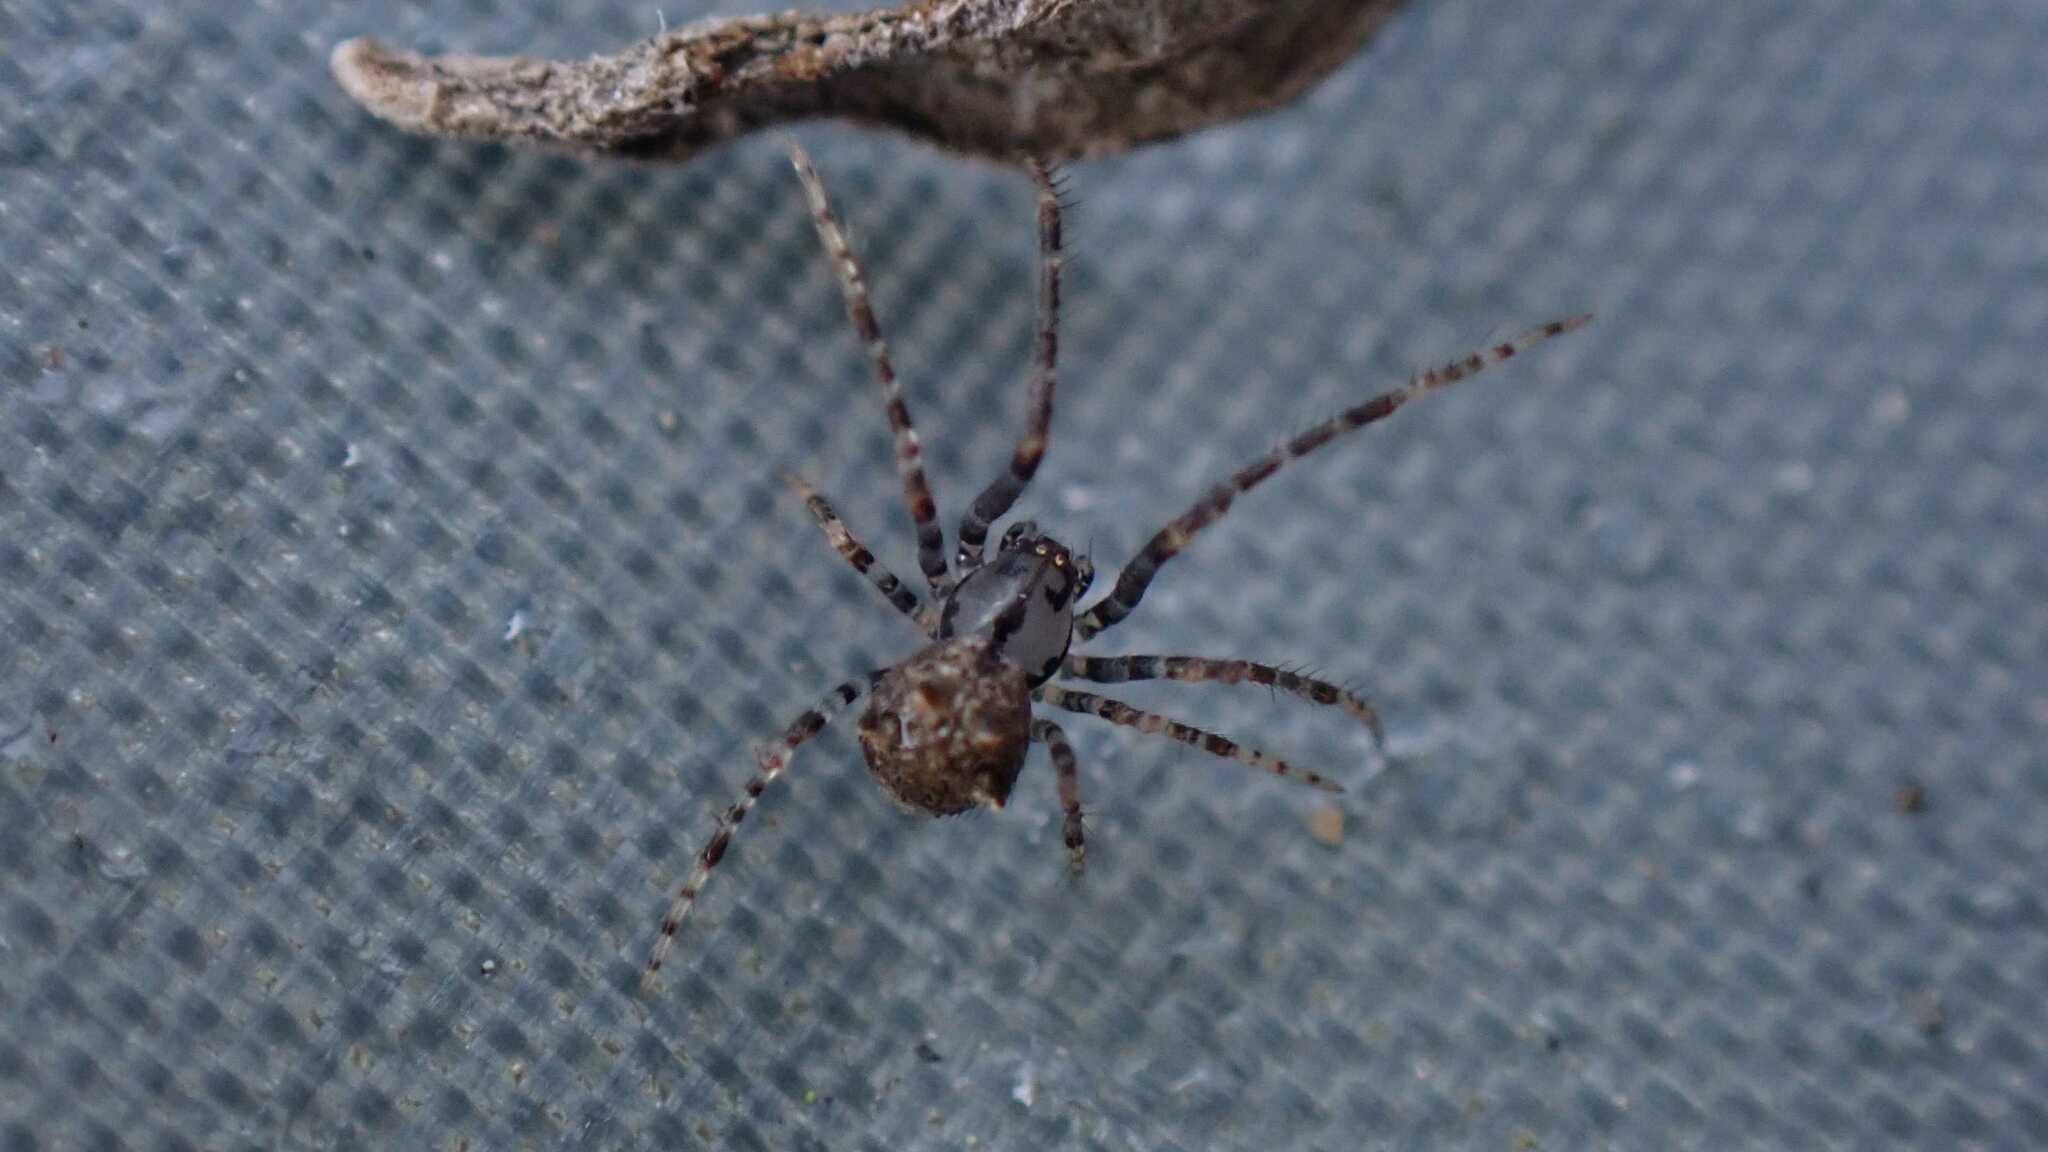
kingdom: Animalia
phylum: Arthropoda
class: Arachnida
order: Araneae
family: Mimetidae
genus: Ero
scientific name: Ero aphana
